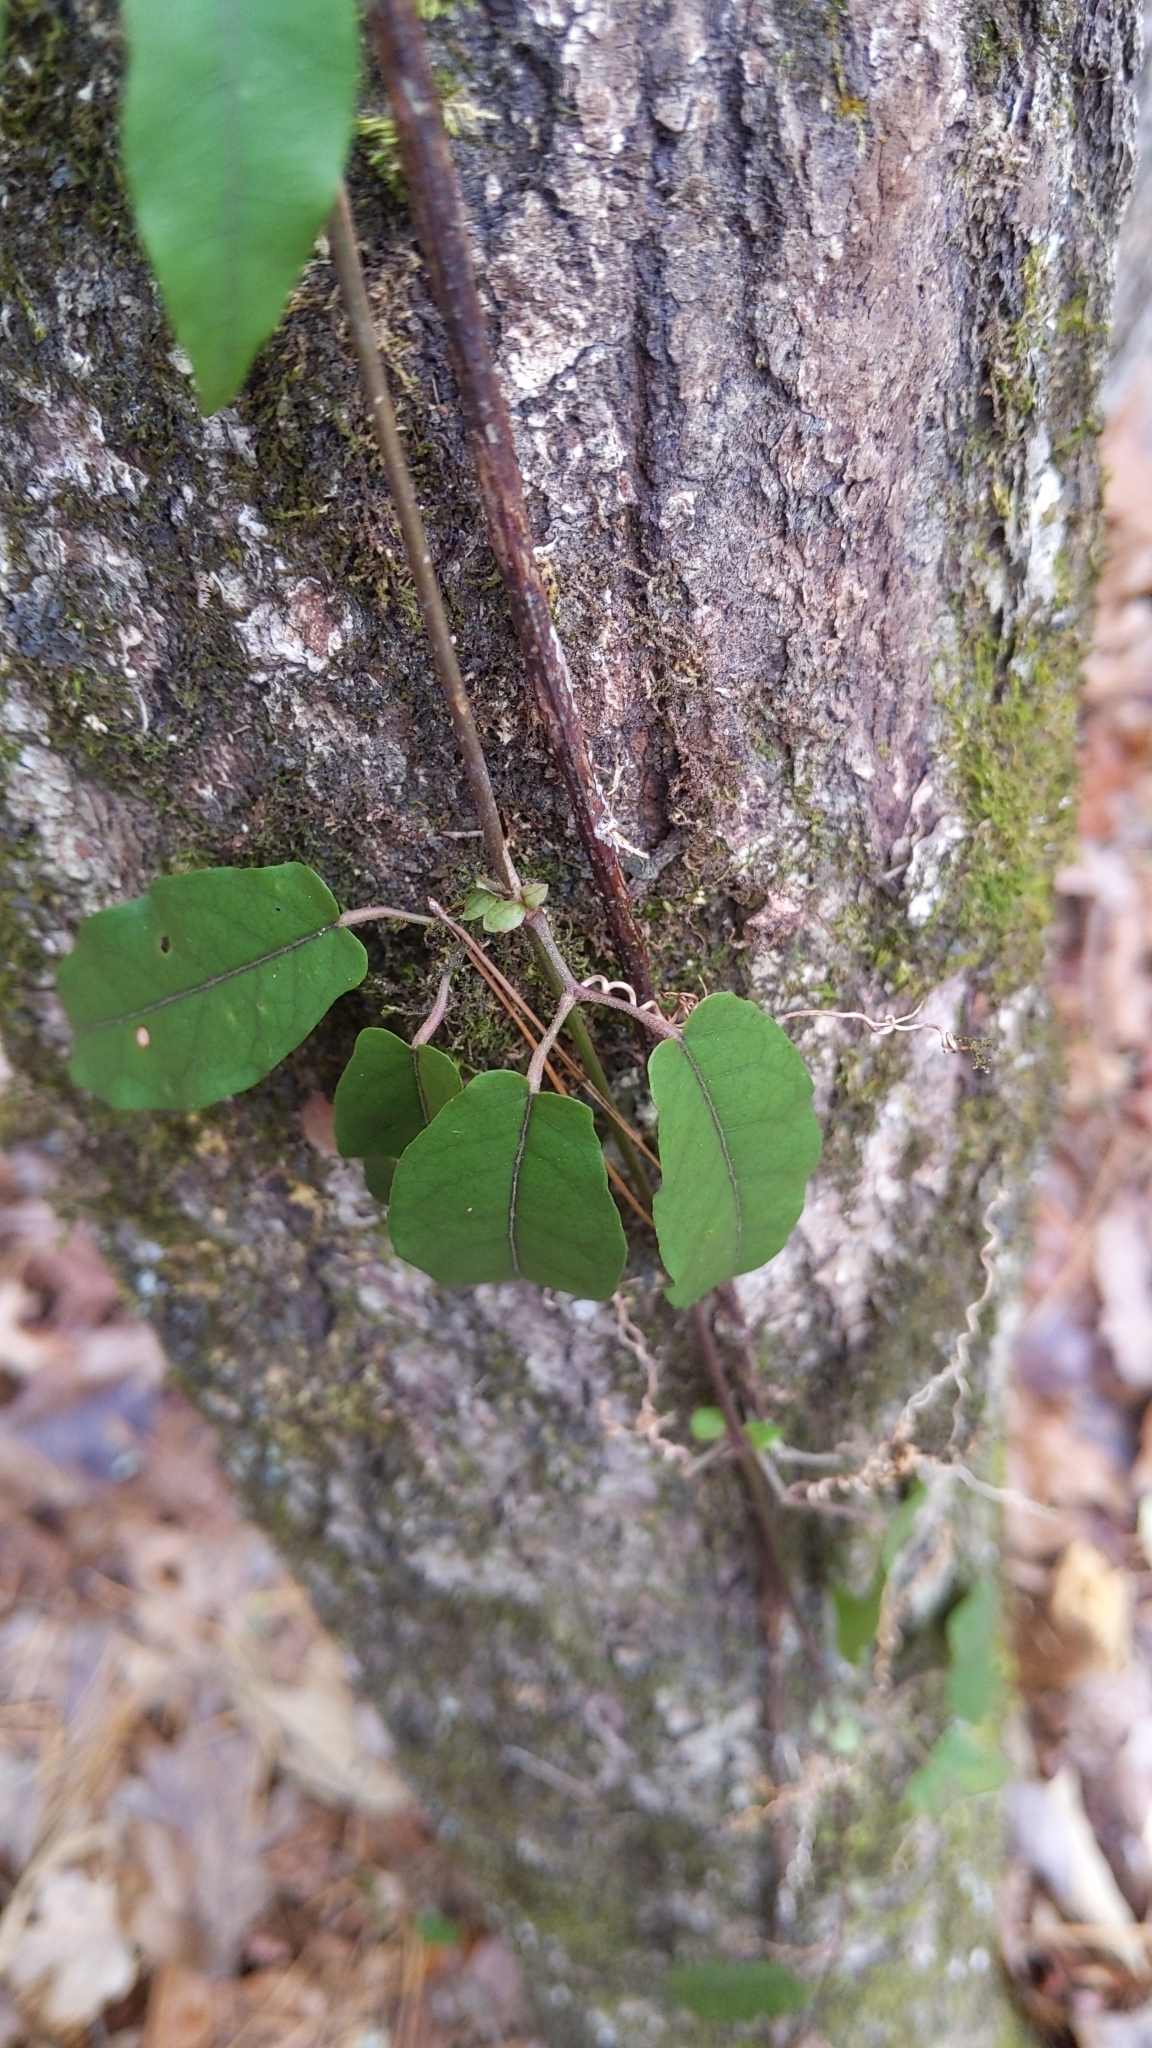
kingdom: Plantae
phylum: Tracheophyta
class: Magnoliopsida
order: Lamiales
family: Bignoniaceae
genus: Bignonia
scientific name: Bignonia capreolata
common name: Crossvine
